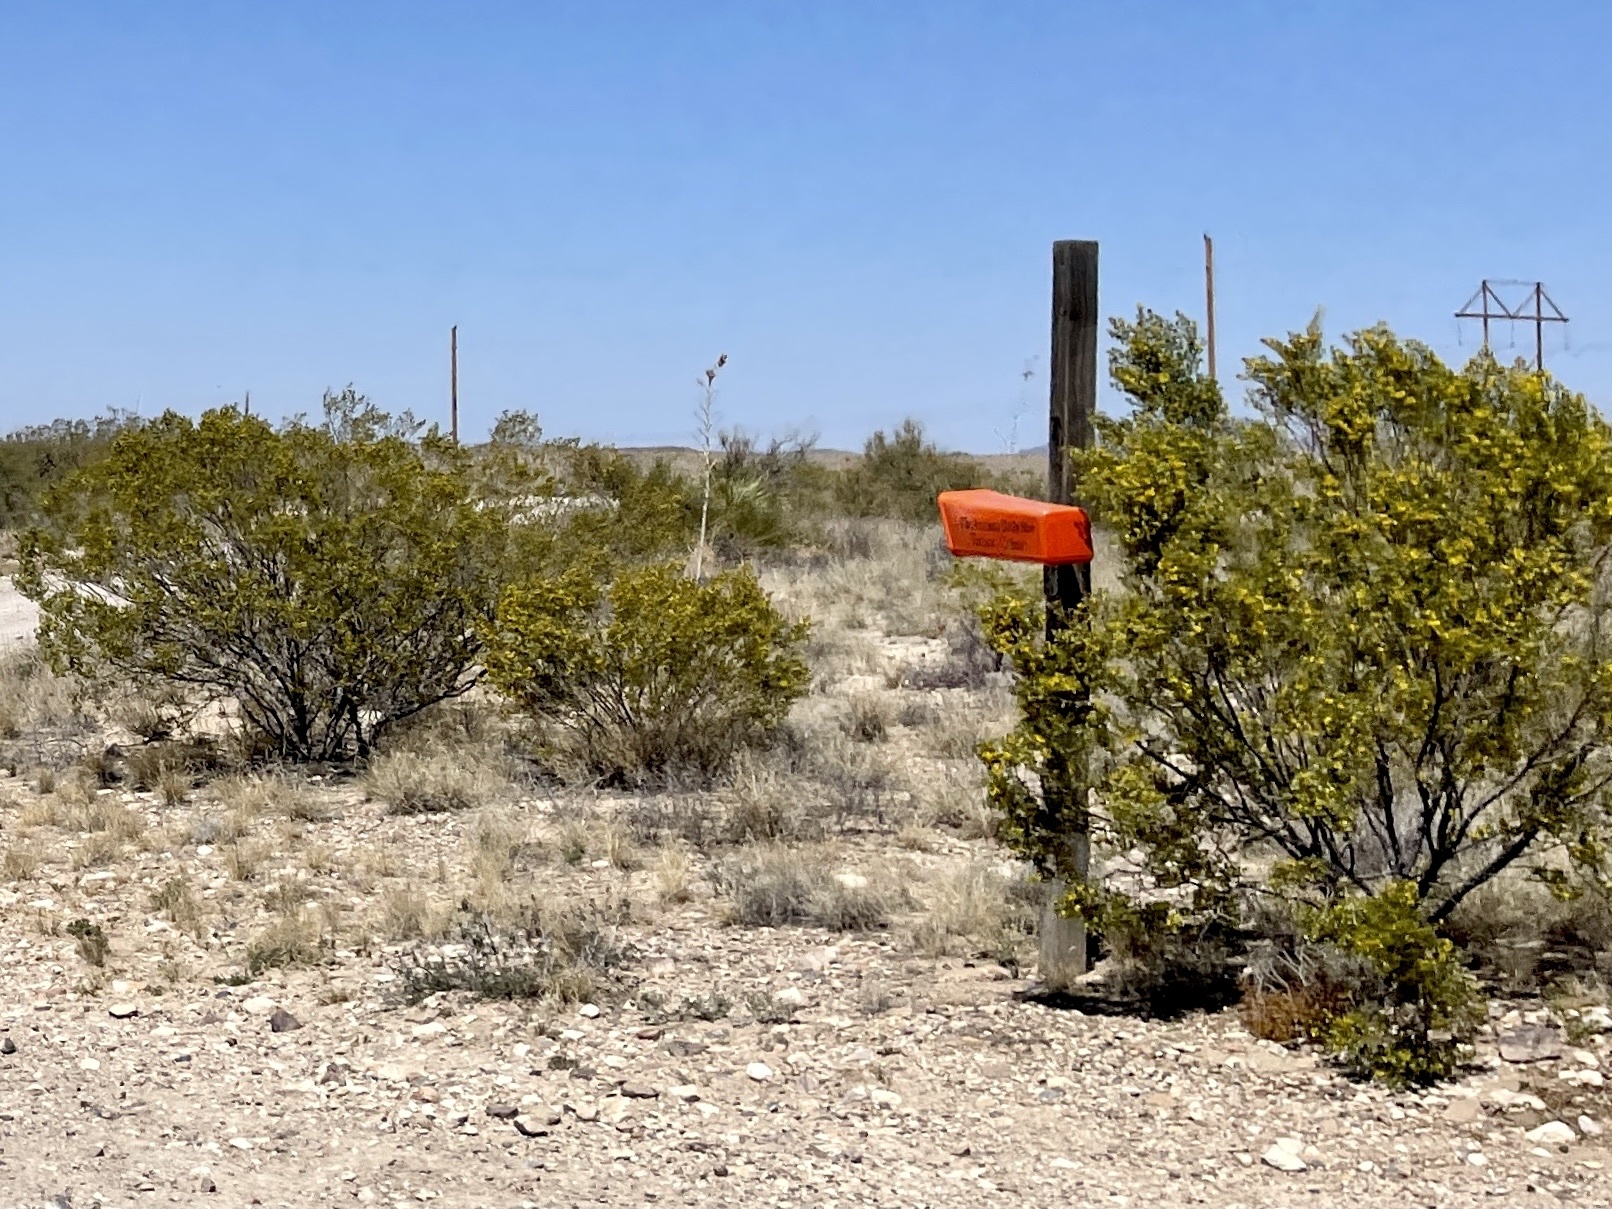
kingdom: Plantae
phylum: Tracheophyta
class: Magnoliopsida
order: Zygophyllales
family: Zygophyllaceae
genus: Larrea
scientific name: Larrea tridentata
